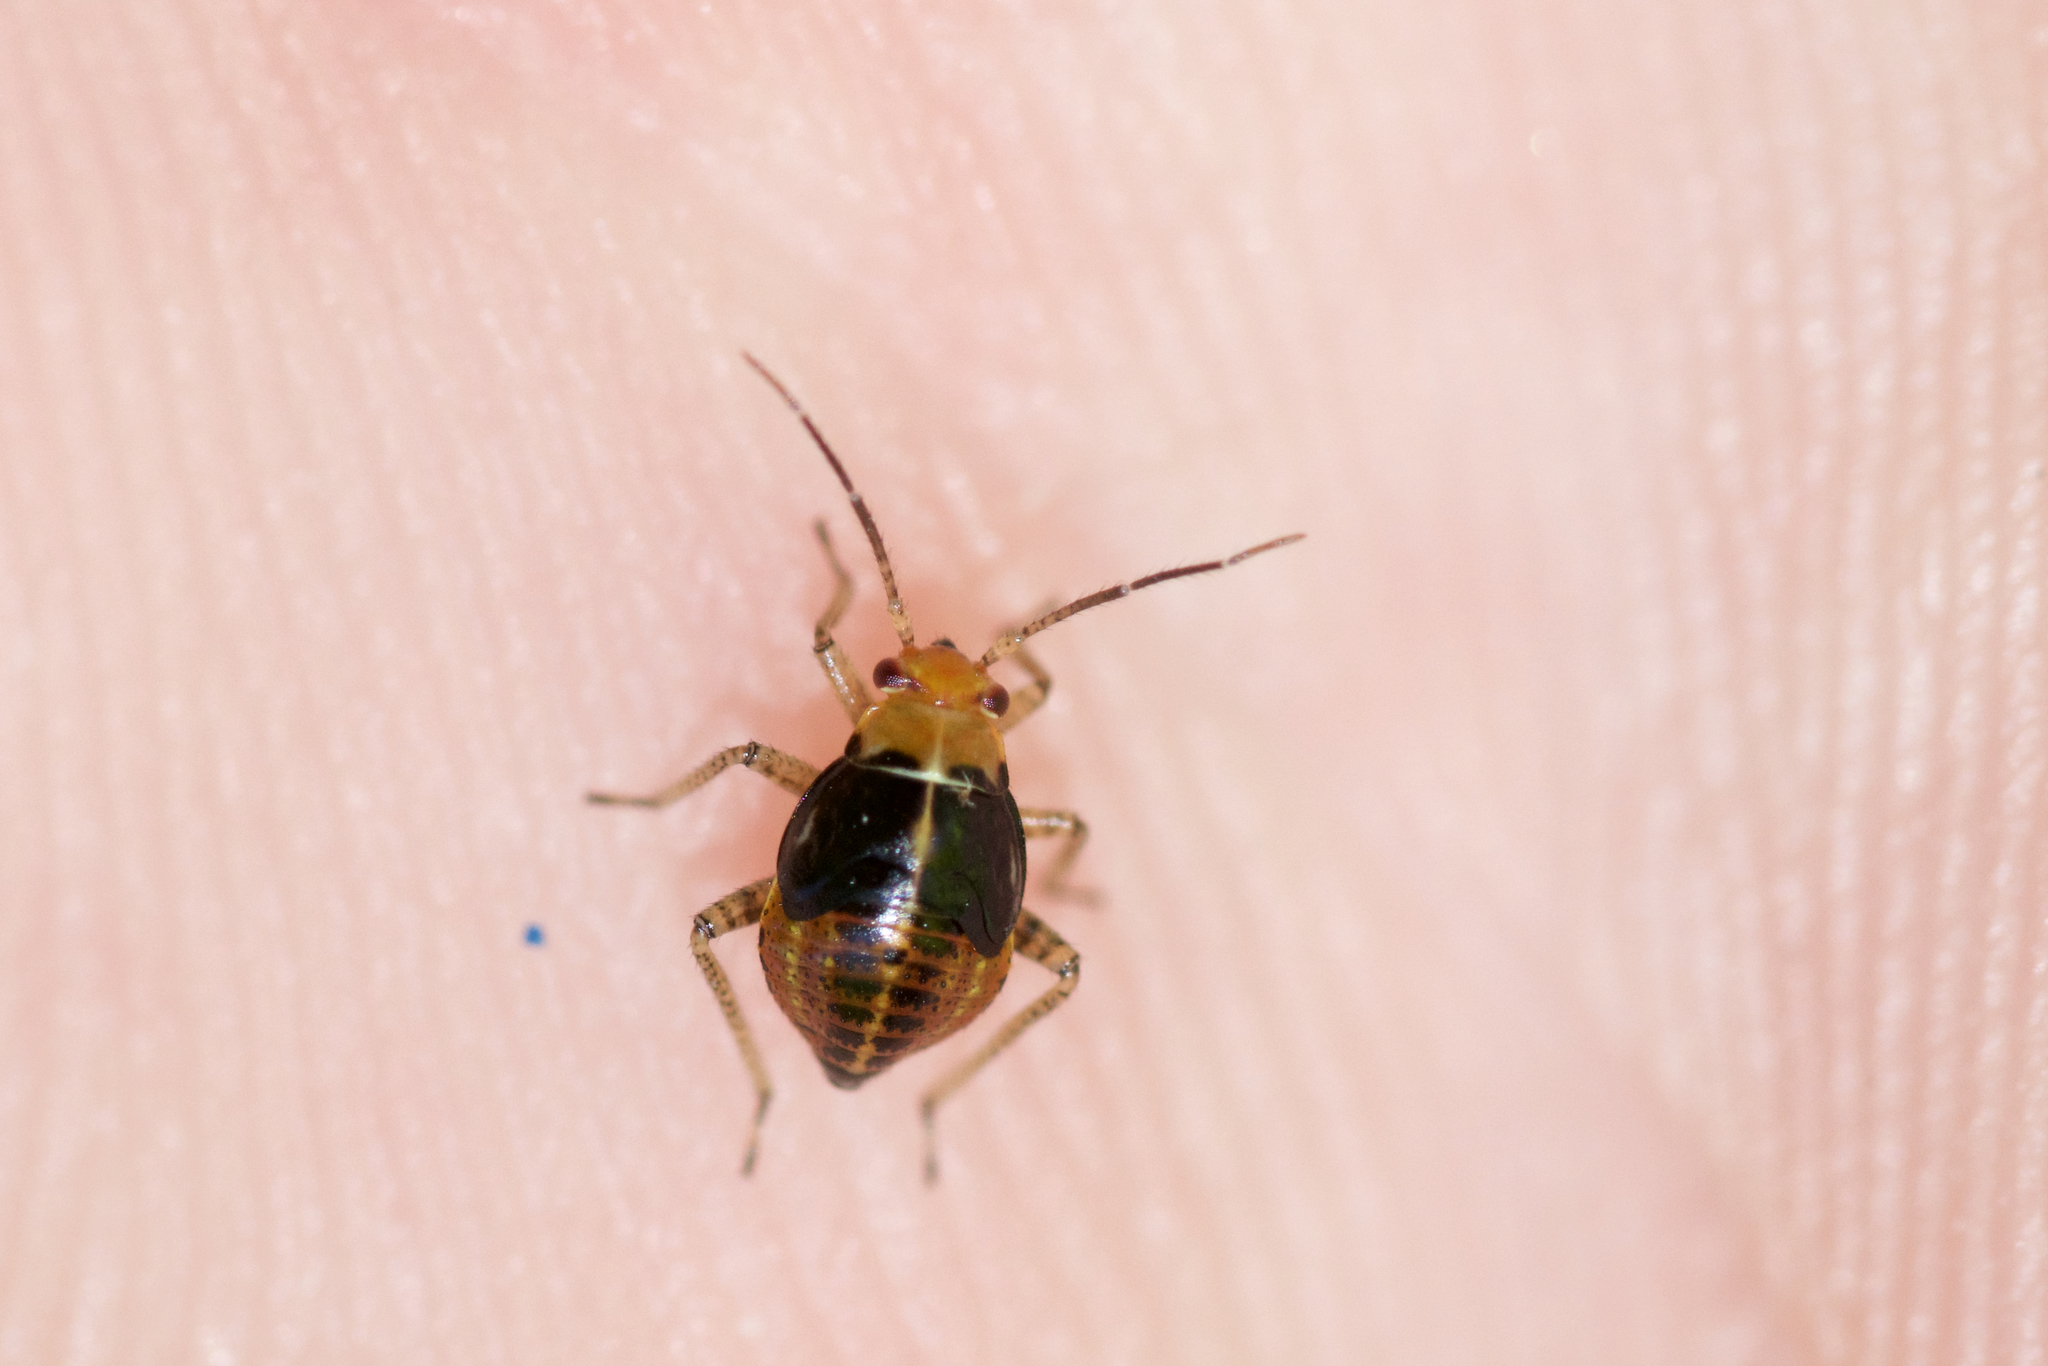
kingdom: Animalia
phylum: Arthropoda
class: Insecta
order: Hemiptera
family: Miridae
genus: Poecilocapsus
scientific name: Poecilocapsus lineatus
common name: Four-lined plant bug
